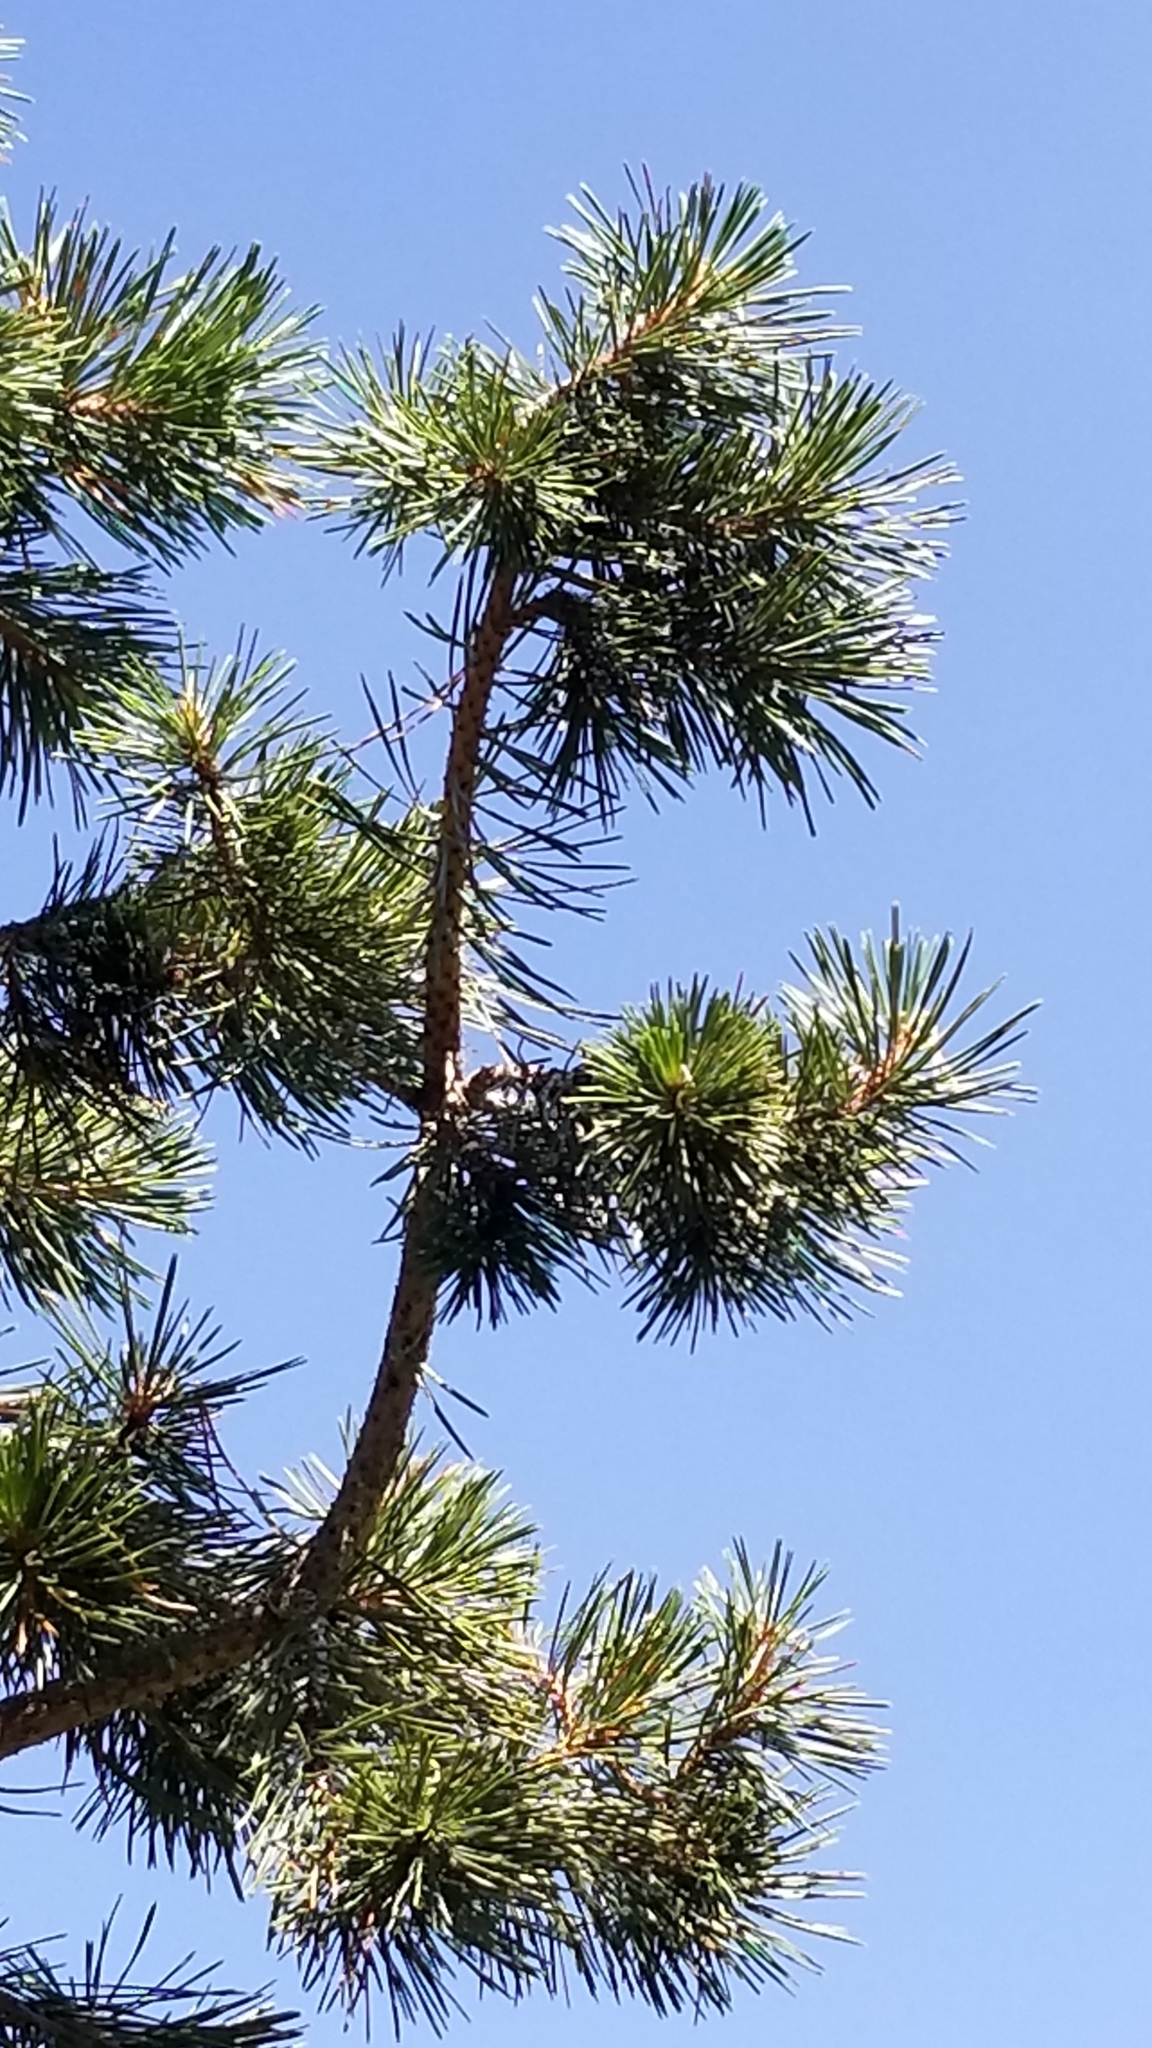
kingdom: Plantae
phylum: Tracheophyta
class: Pinopsida
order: Pinales
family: Pinaceae
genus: Pinus
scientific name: Pinus contorta
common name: Lodgepole pine
